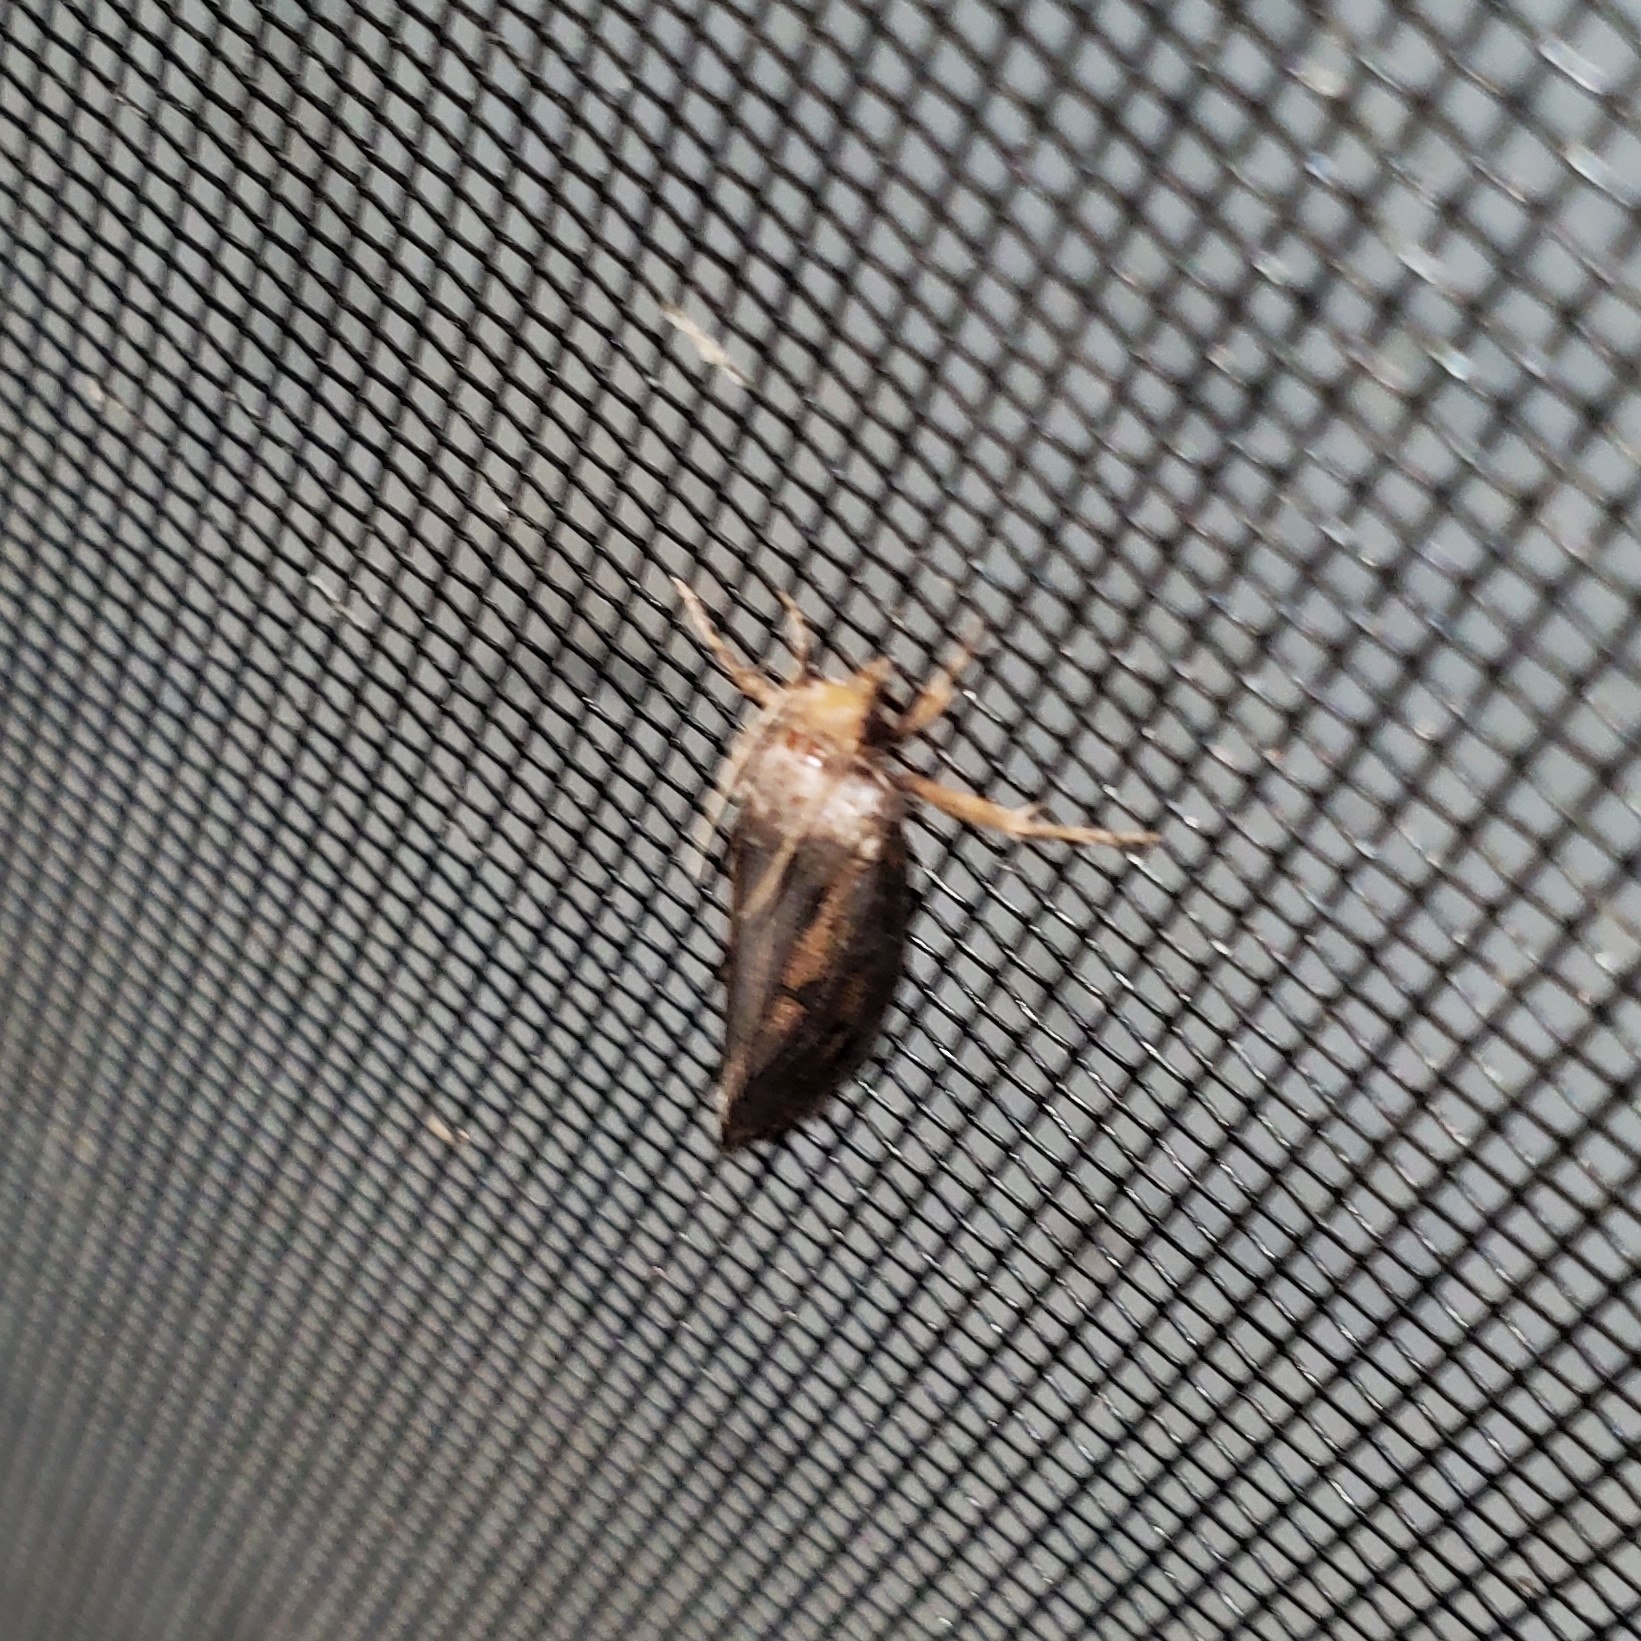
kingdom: Animalia
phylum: Arthropoda
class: Insecta
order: Lepidoptera
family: Tineidae
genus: Acrolophus
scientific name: Acrolophus popeanella
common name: Clemens' grass tubeworm moth
